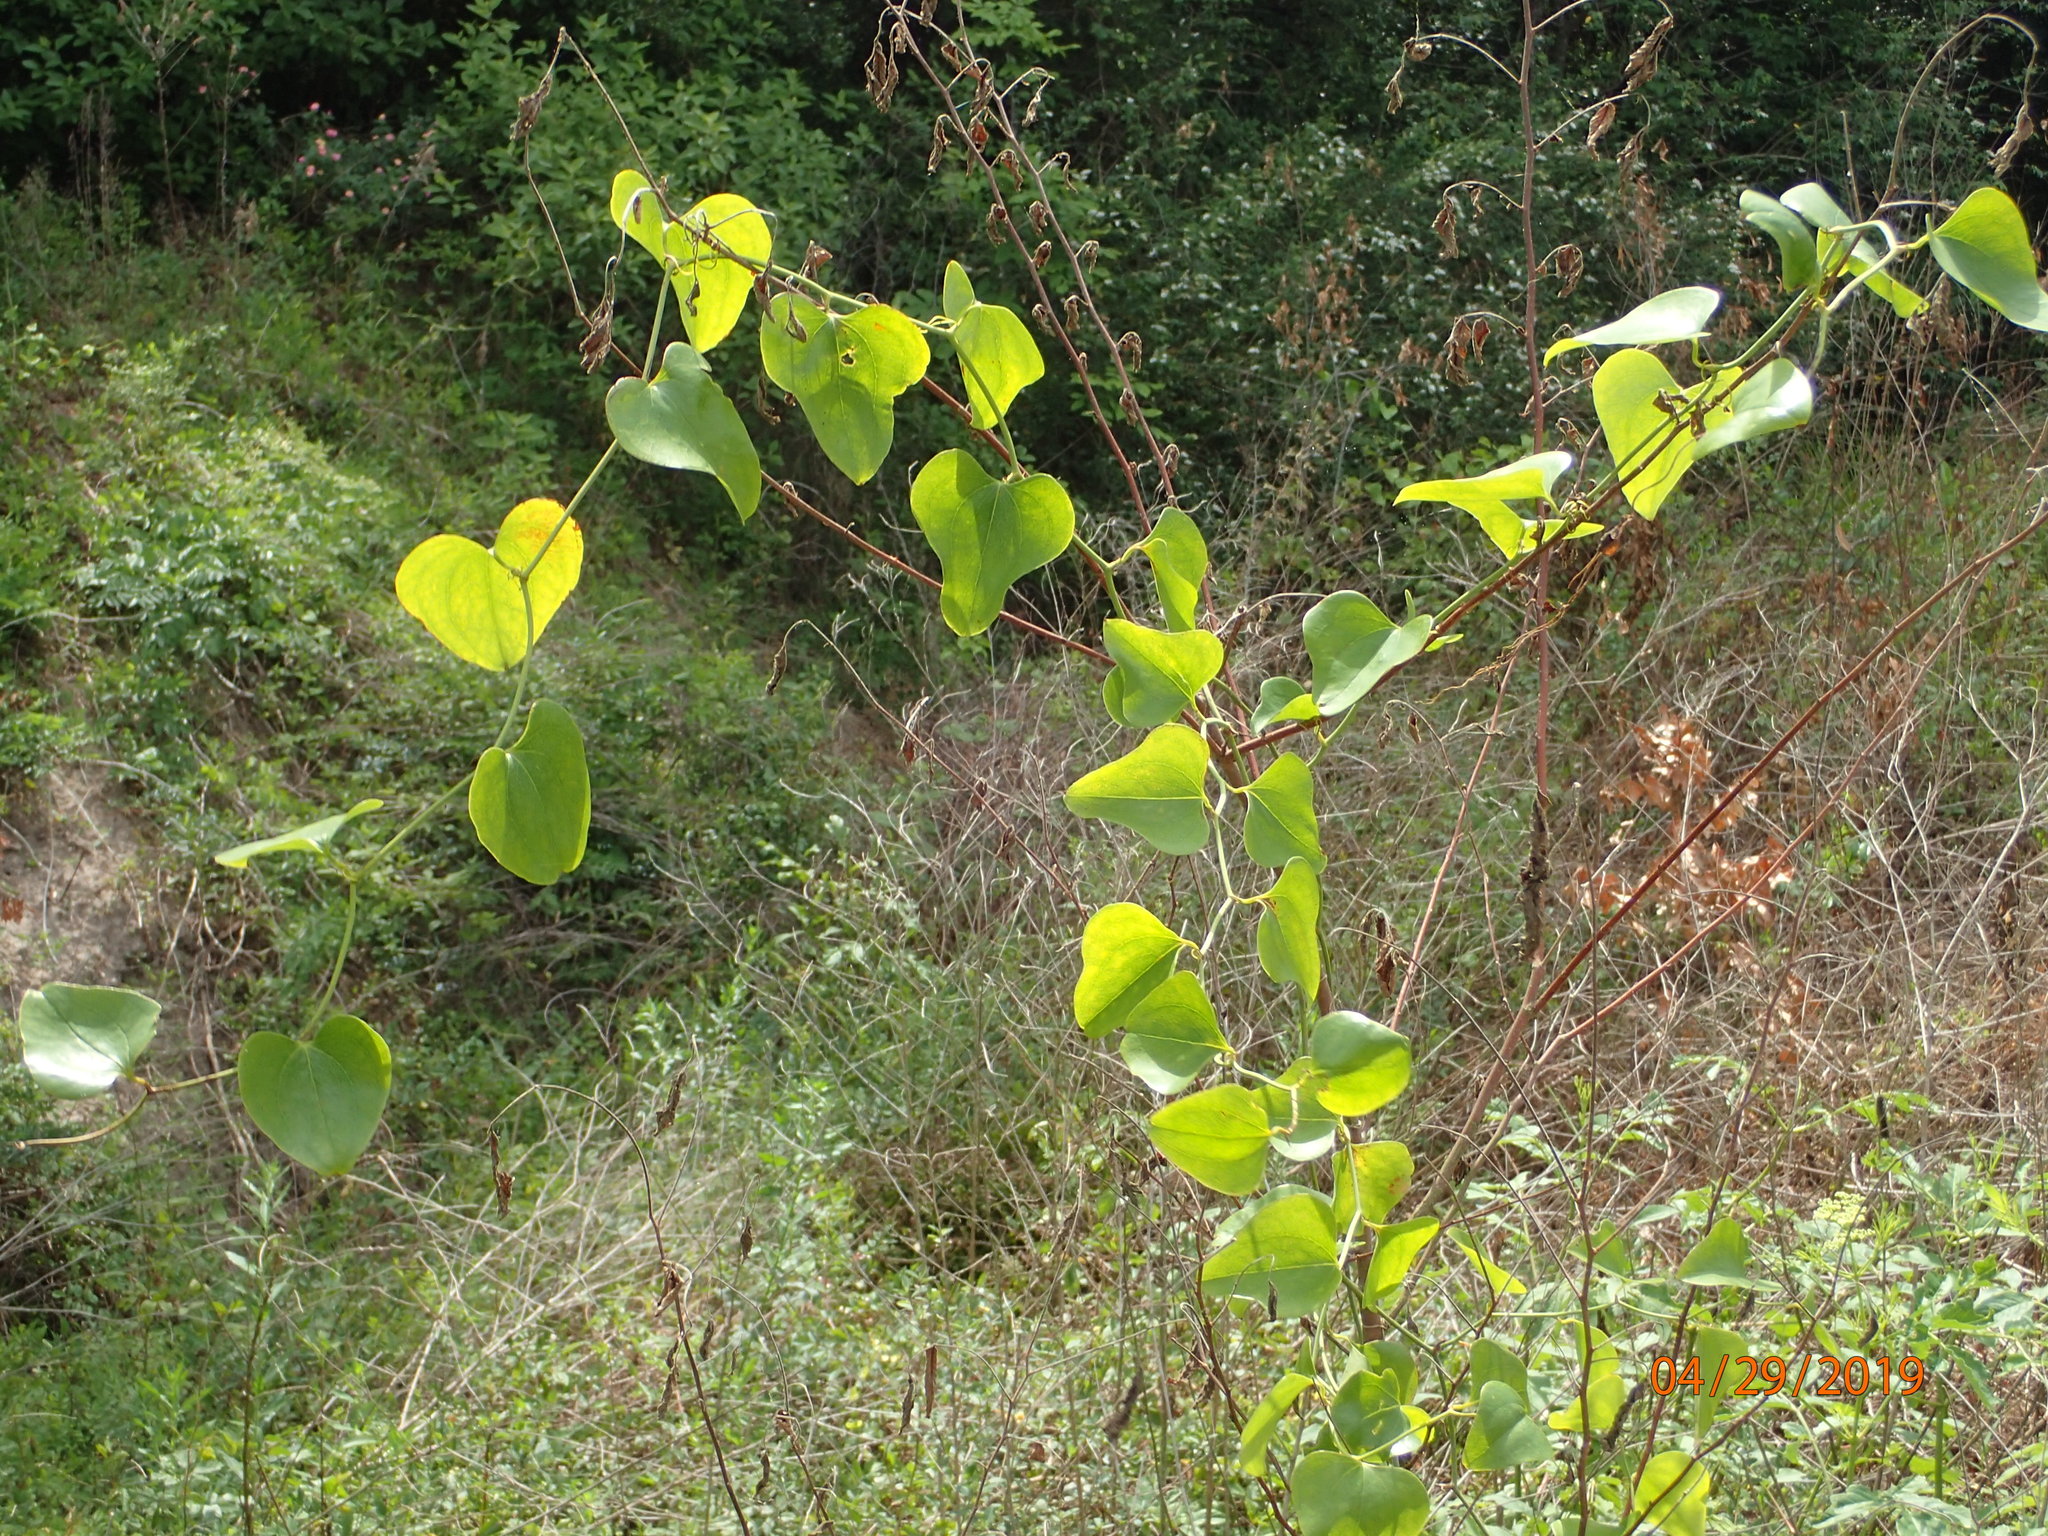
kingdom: Plantae
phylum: Tracheophyta
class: Liliopsida
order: Liliales
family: Smilacaceae
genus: Smilax
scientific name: Smilax bona-nox
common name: Catbrier
